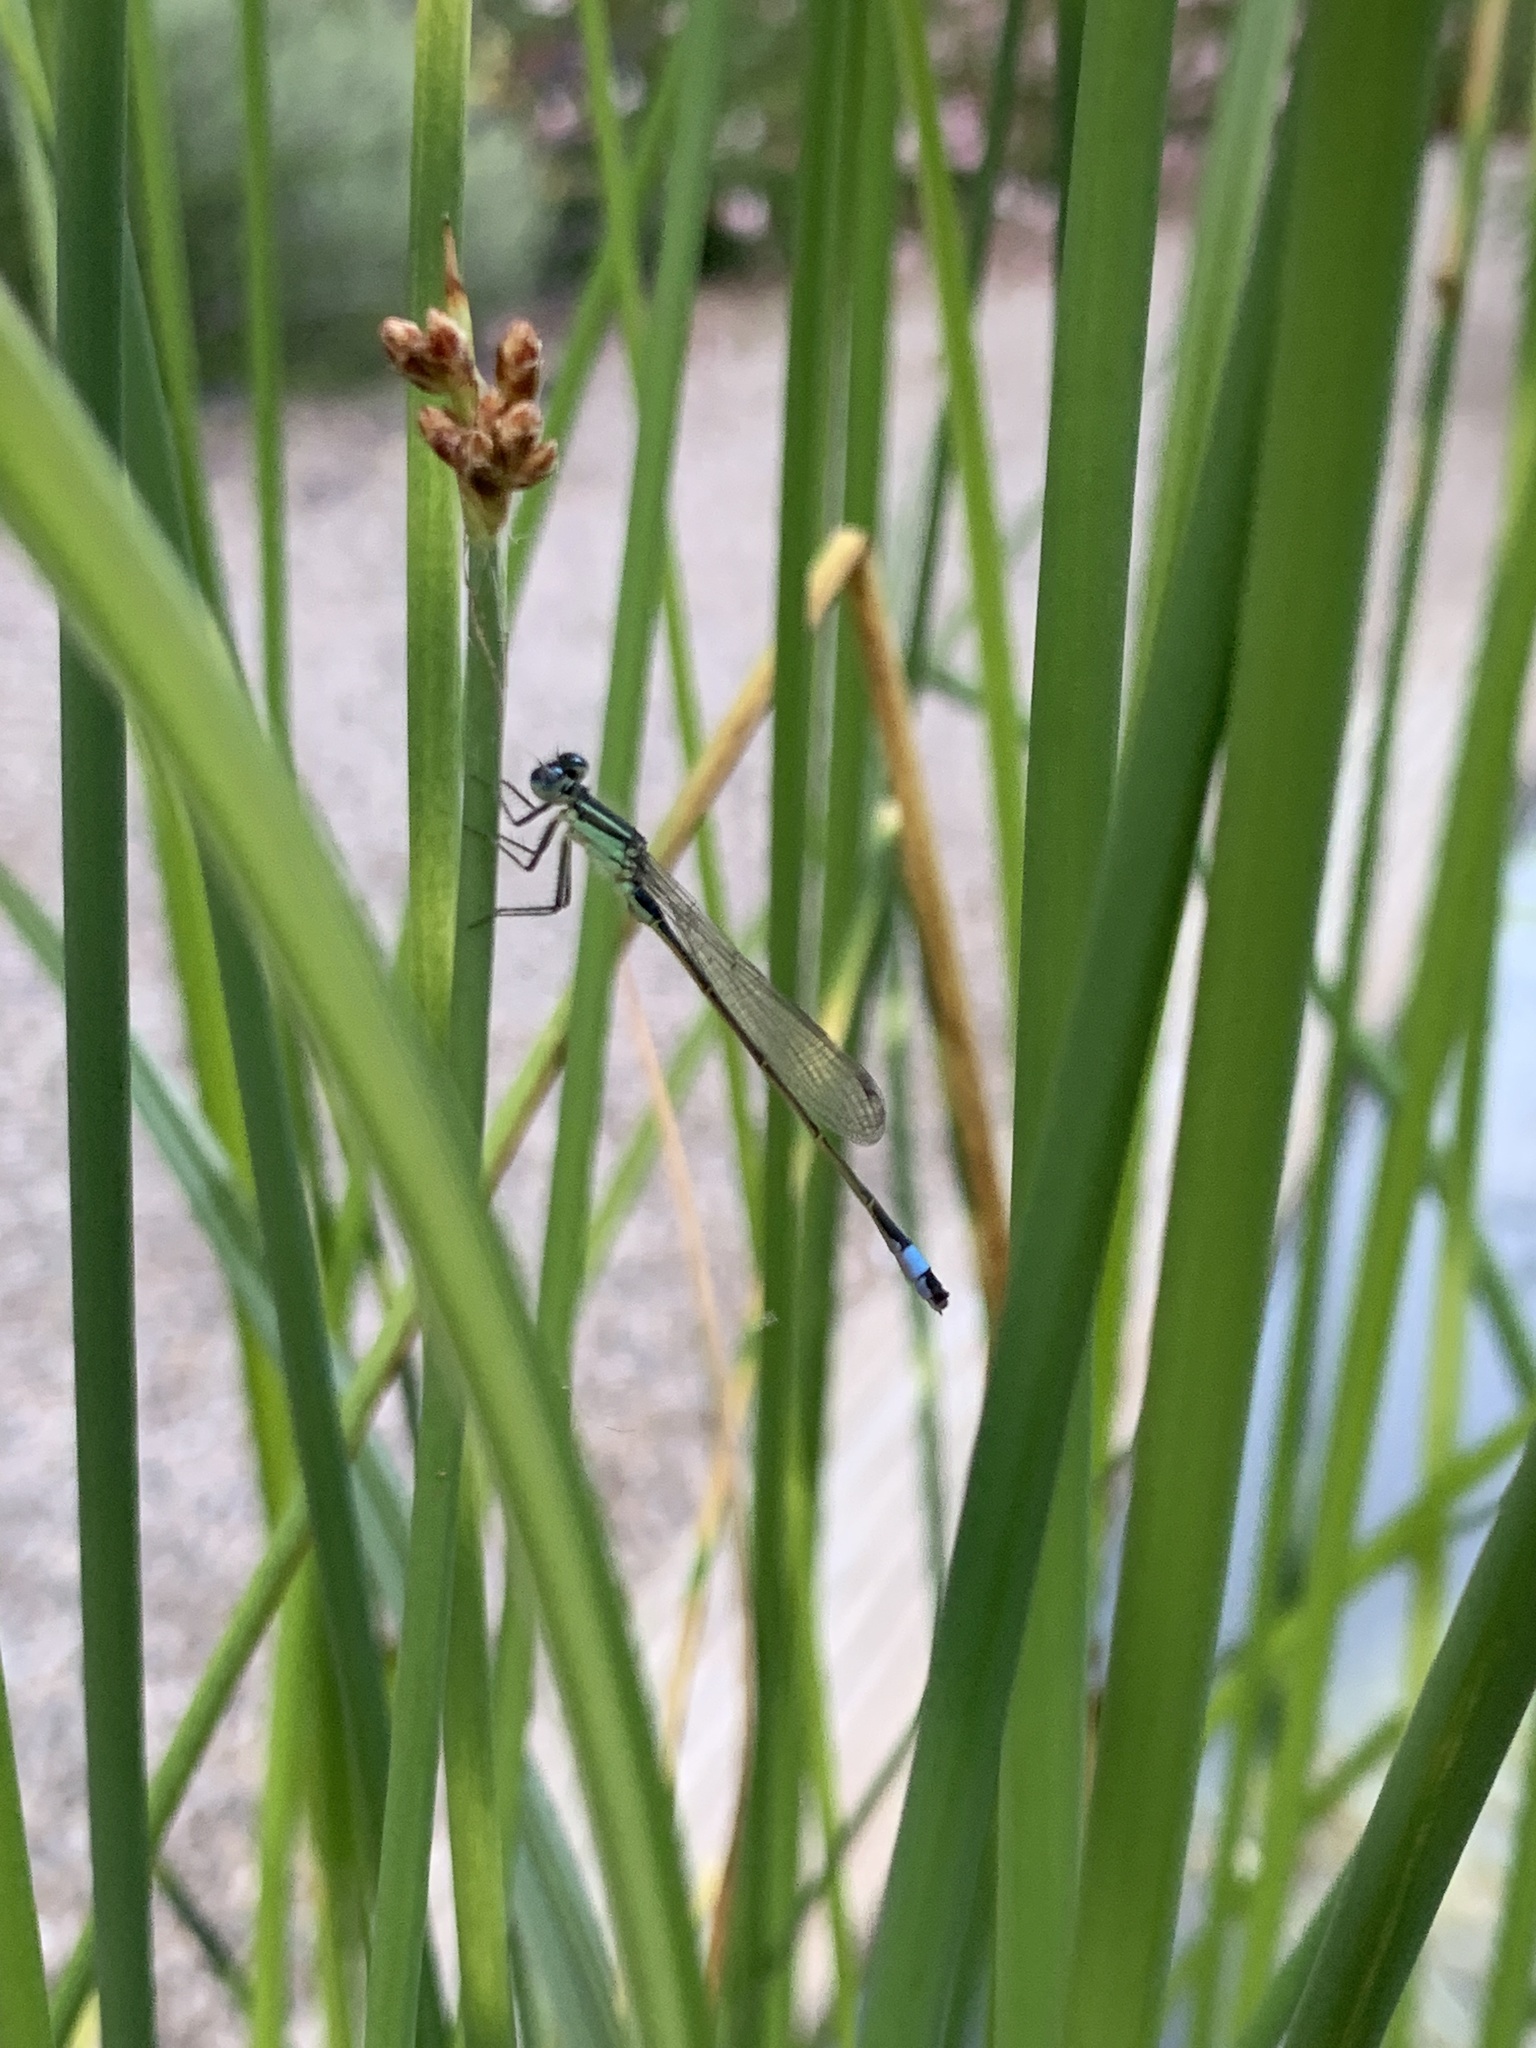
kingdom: Animalia
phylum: Arthropoda
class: Insecta
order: Odonata
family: Coenagrionidae
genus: Ischnura
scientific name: Ischnura elegans
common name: Blue-tailed damselfly
